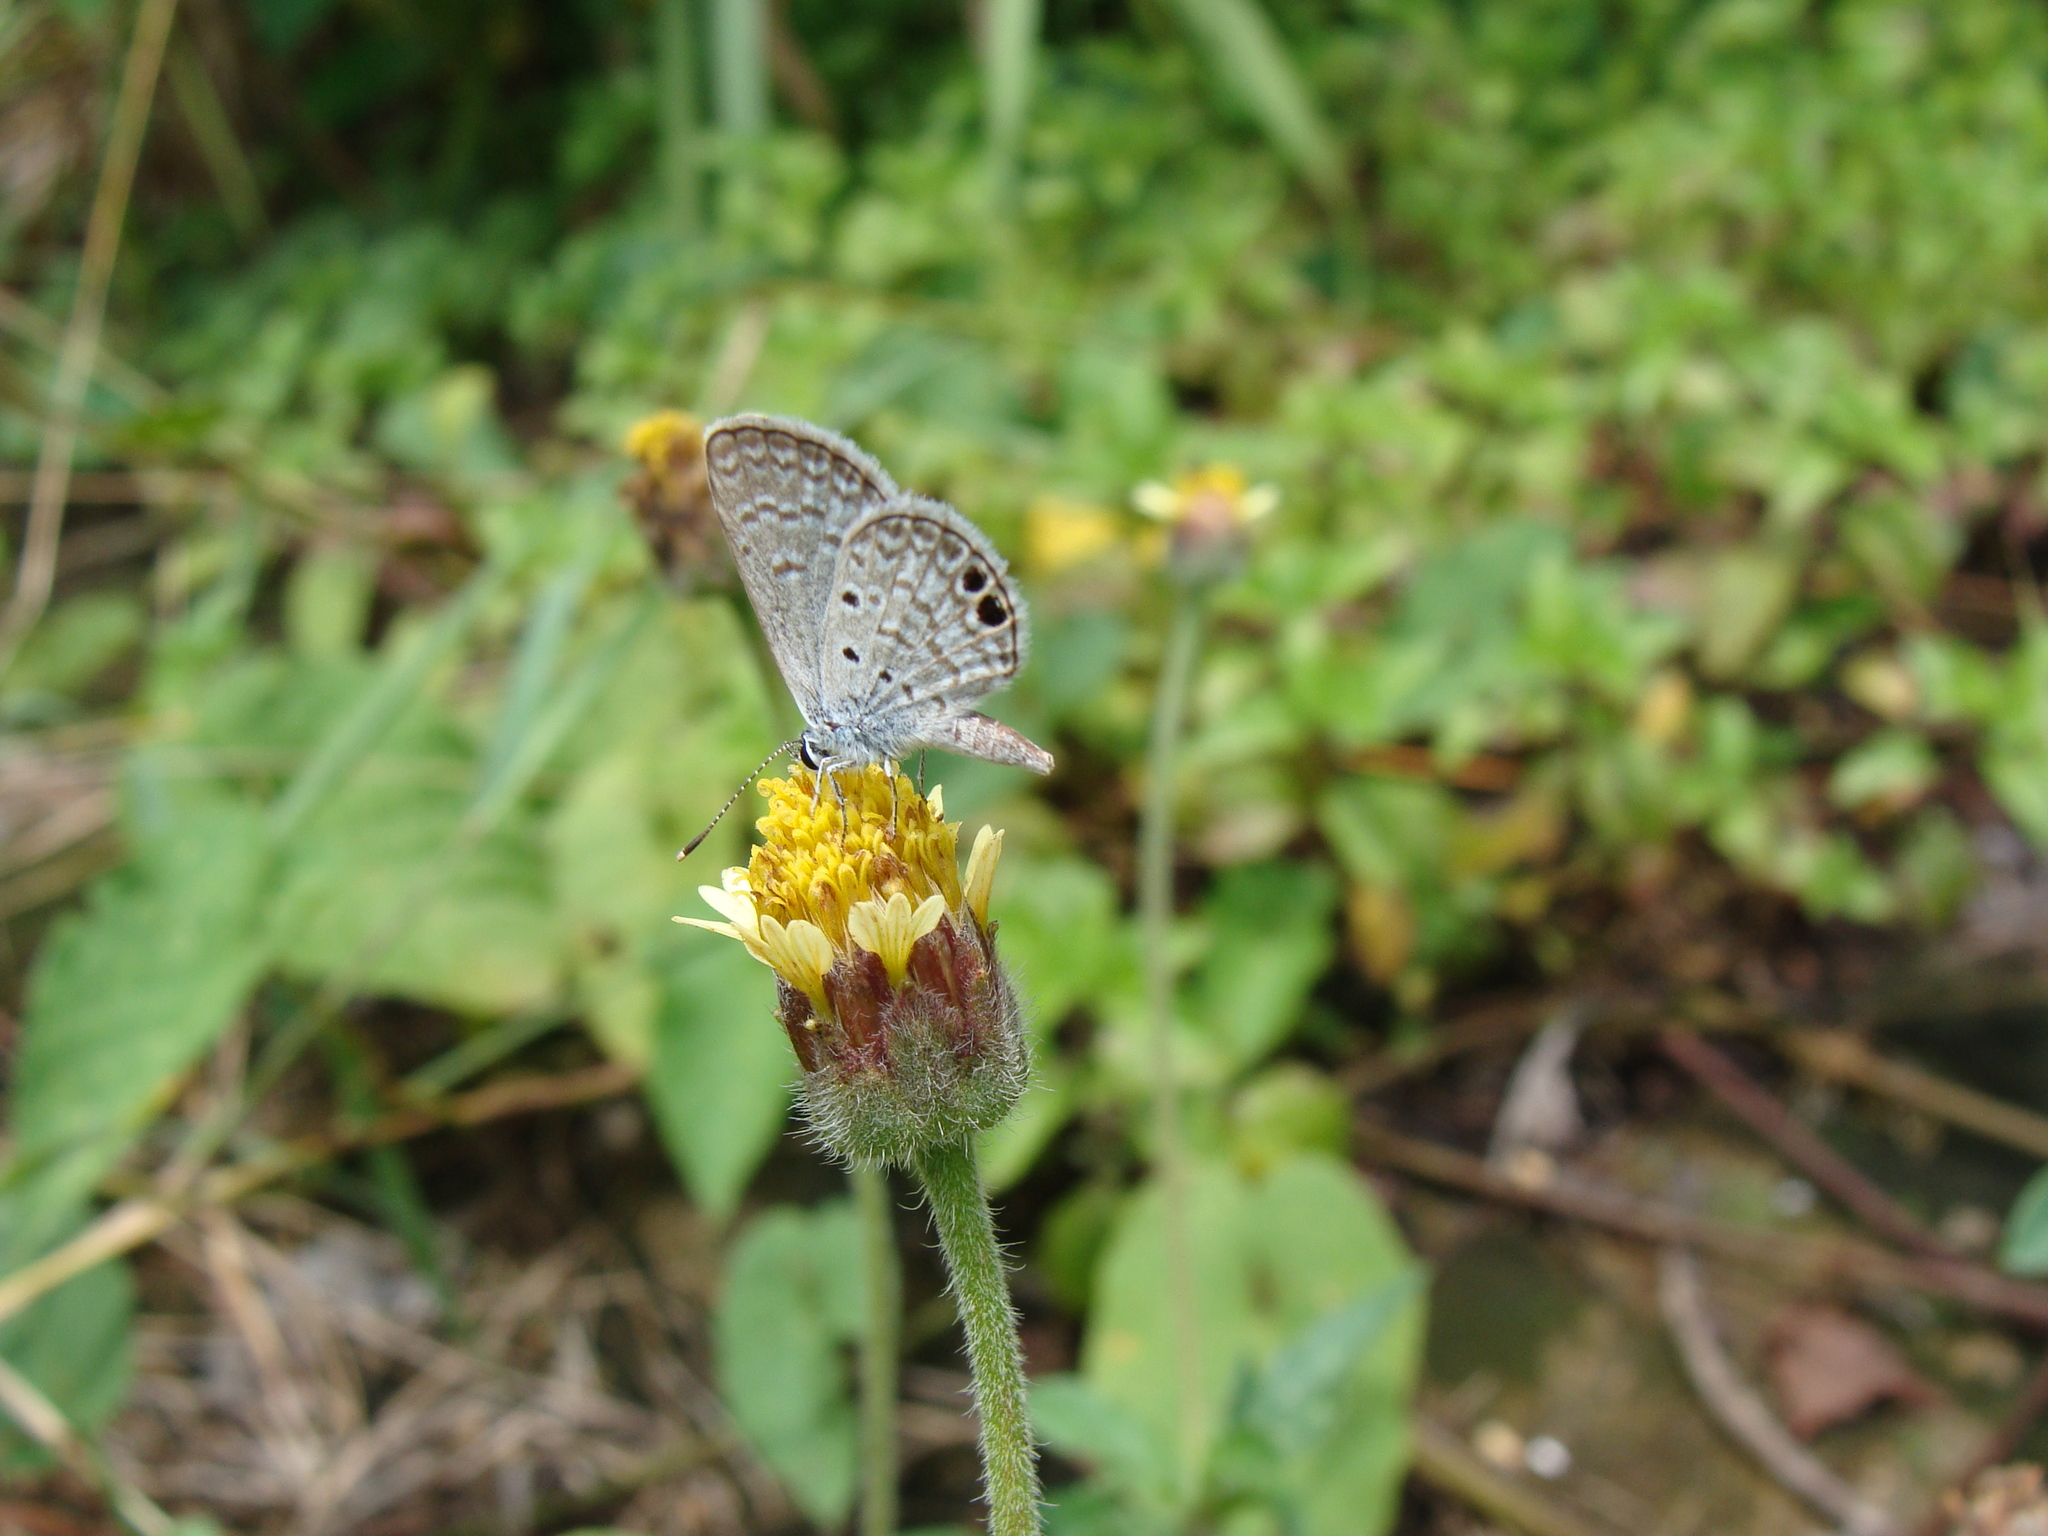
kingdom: Animalia
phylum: Arthropoda
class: Insecta
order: Lepidoptera
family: Lycaenidae
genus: Hemiargus
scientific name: Hemiargus ceraunus
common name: Ceraunus blue
